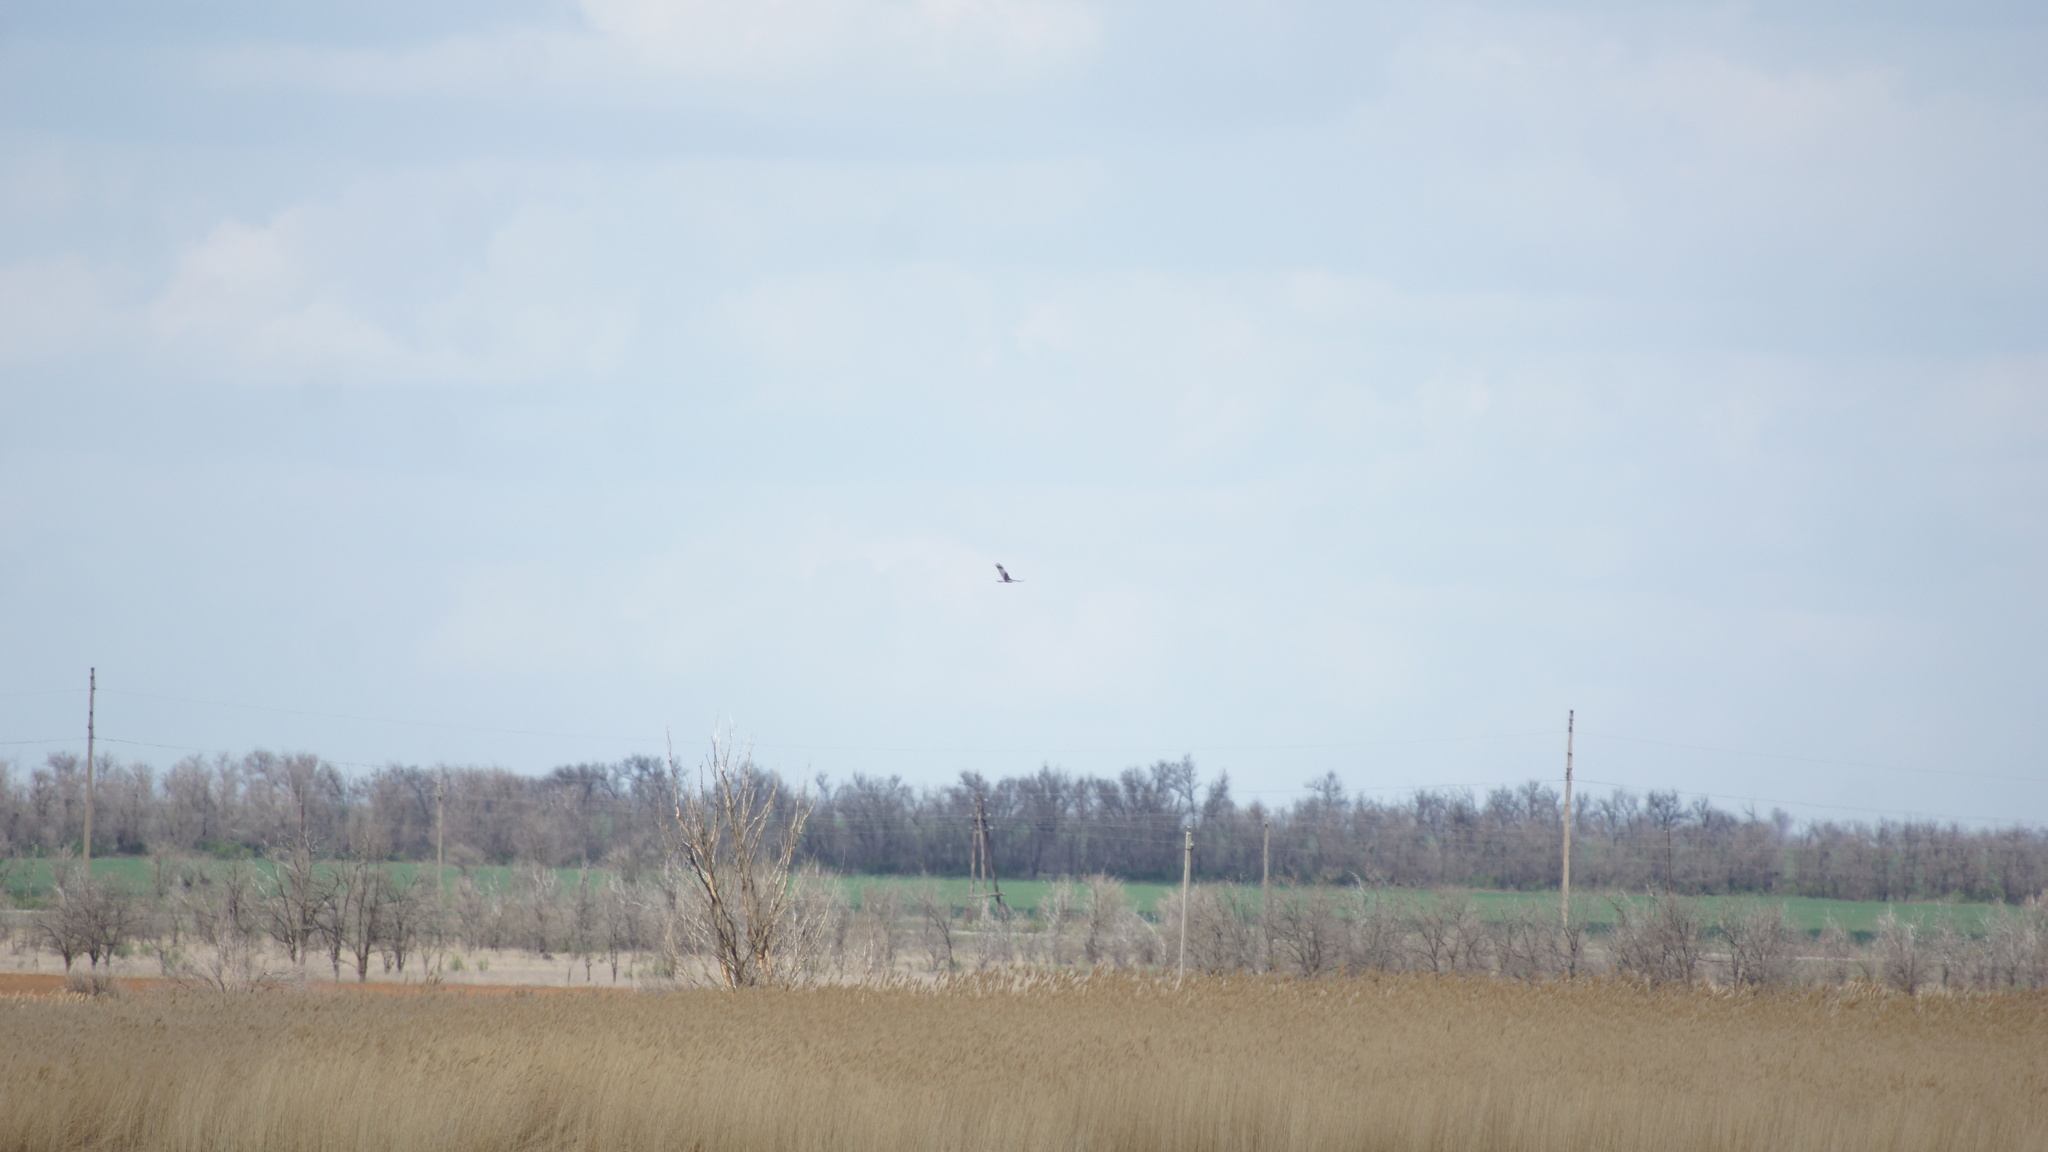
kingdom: Animalia
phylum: Chordata
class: Aves
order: Accipitriformes
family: Accipitridae
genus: Circus
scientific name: Circus aeruginosus
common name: Western marsh harrier
